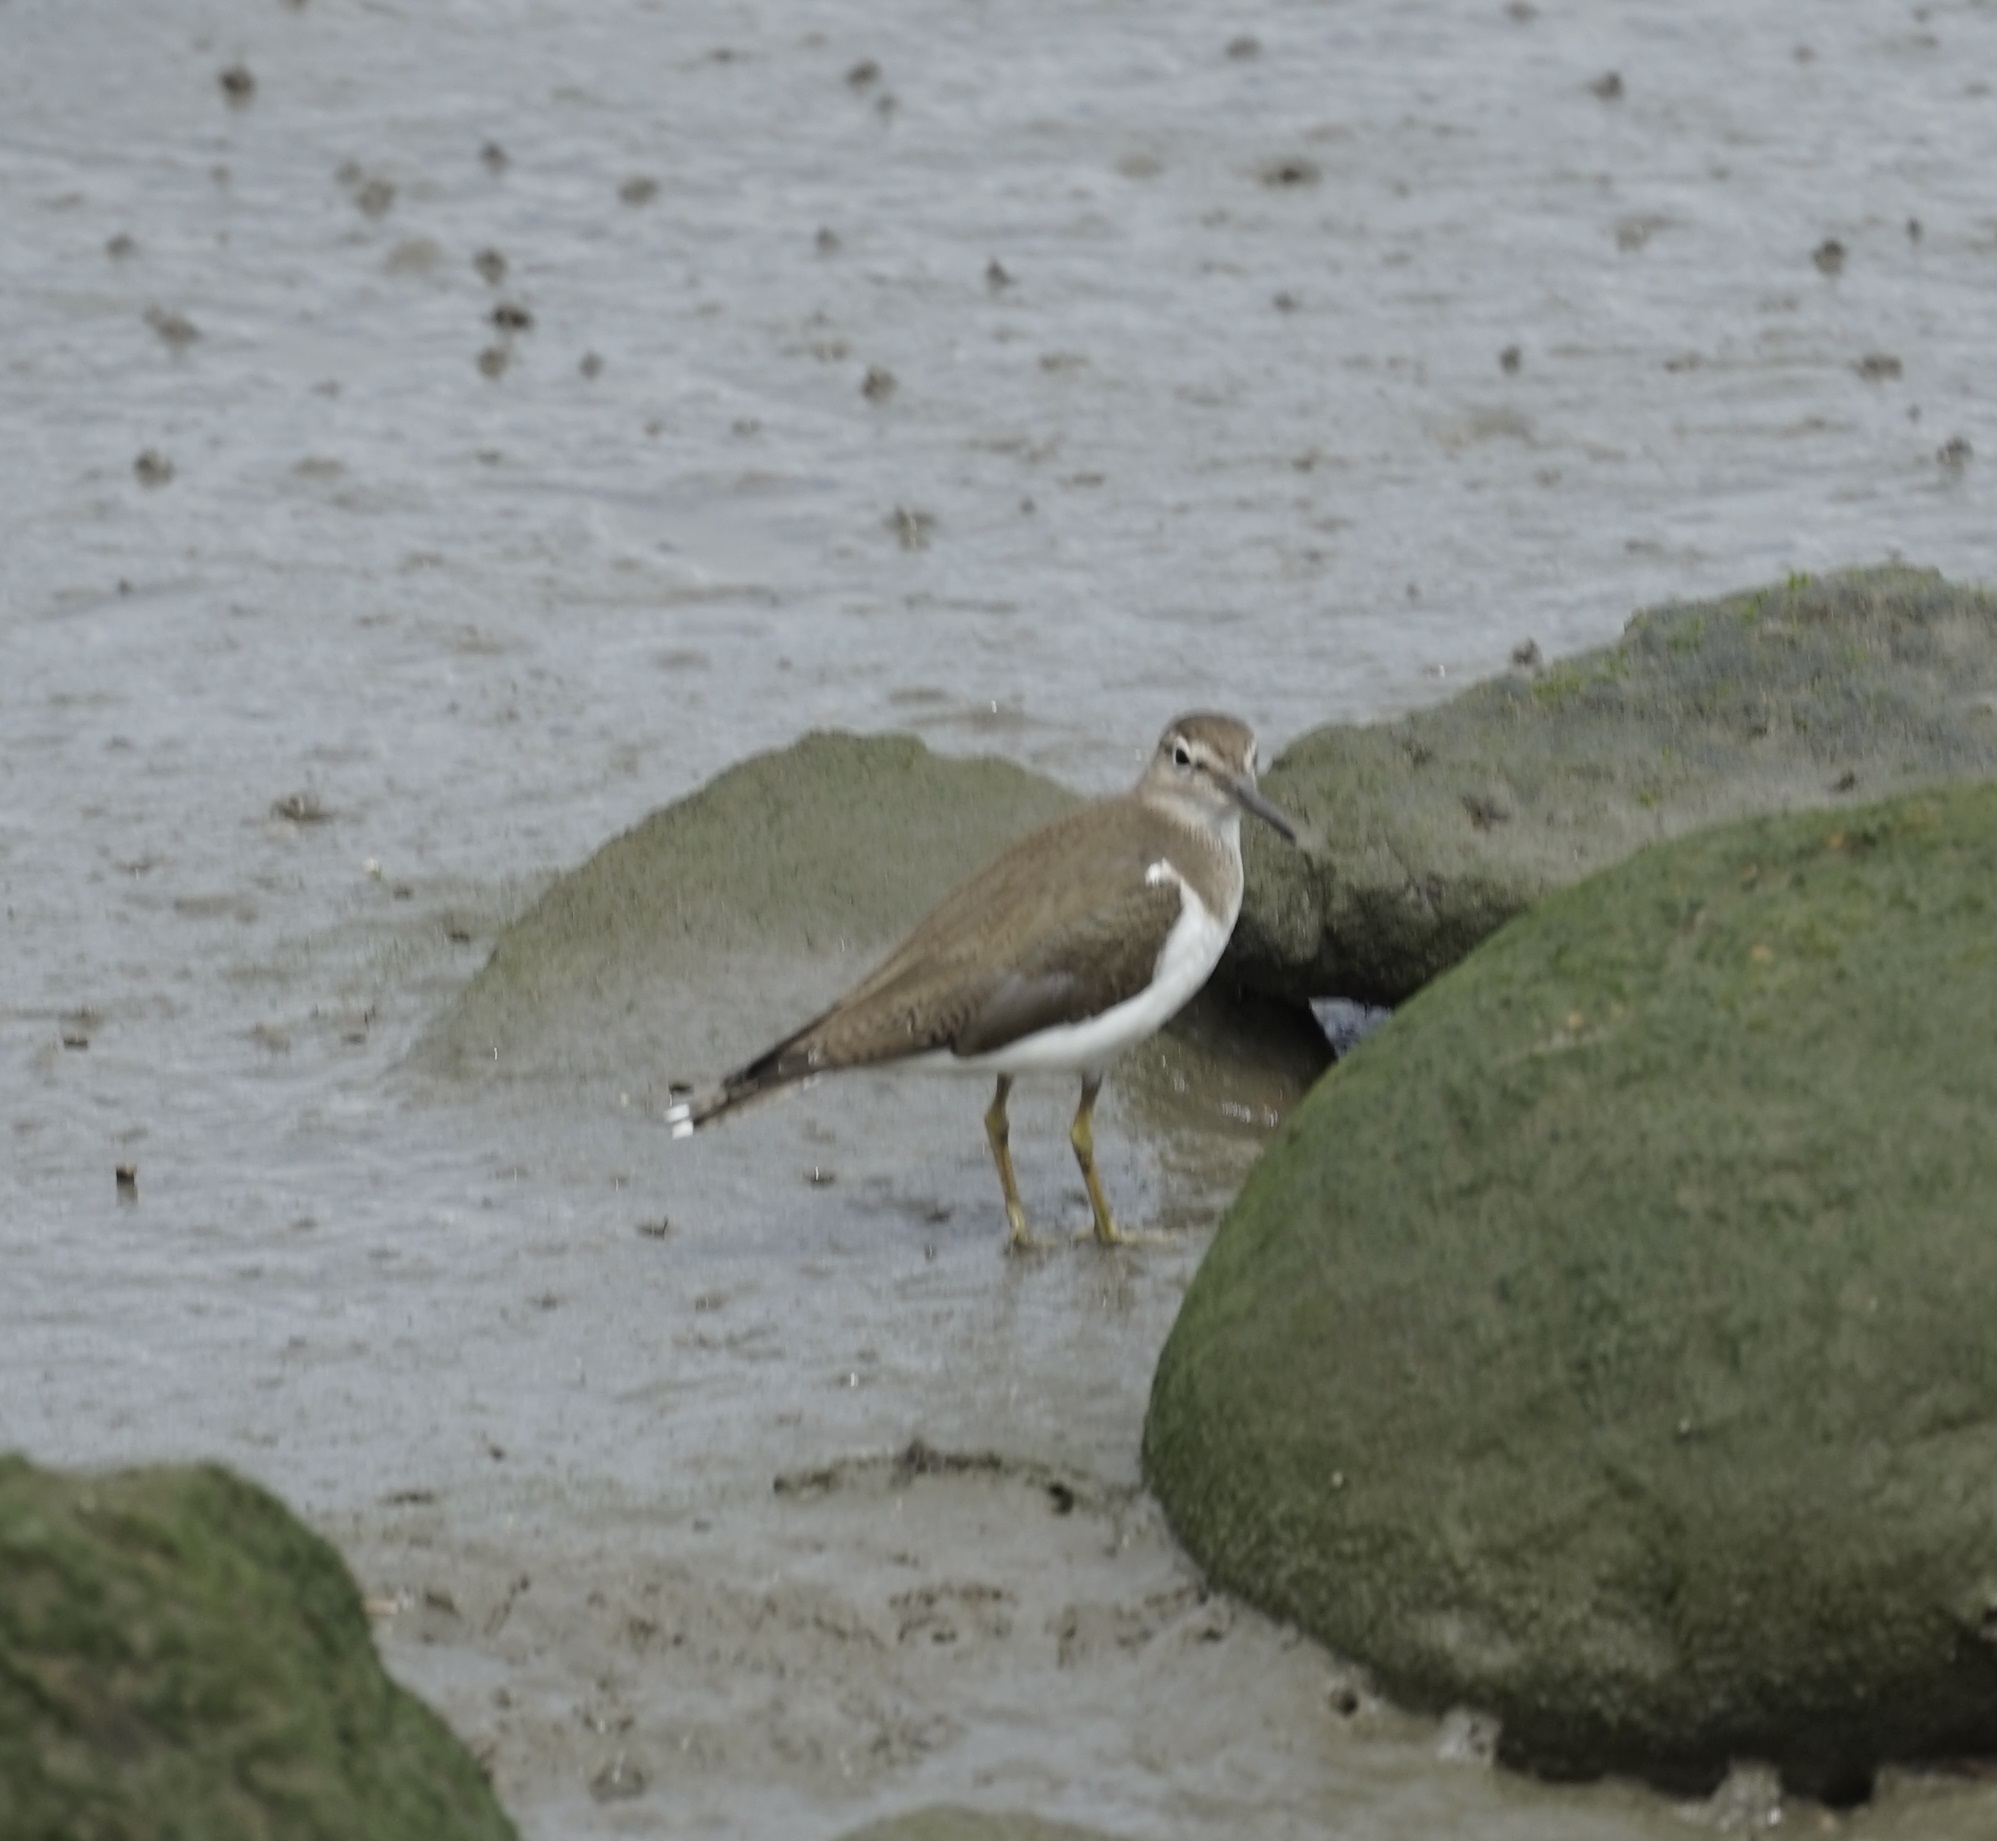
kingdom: Animalia
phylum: Chordata
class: Aves
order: Charadriiformes
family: Scolopacidae
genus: Actitis
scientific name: Actitis hypoleucos
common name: Common sandpiper
